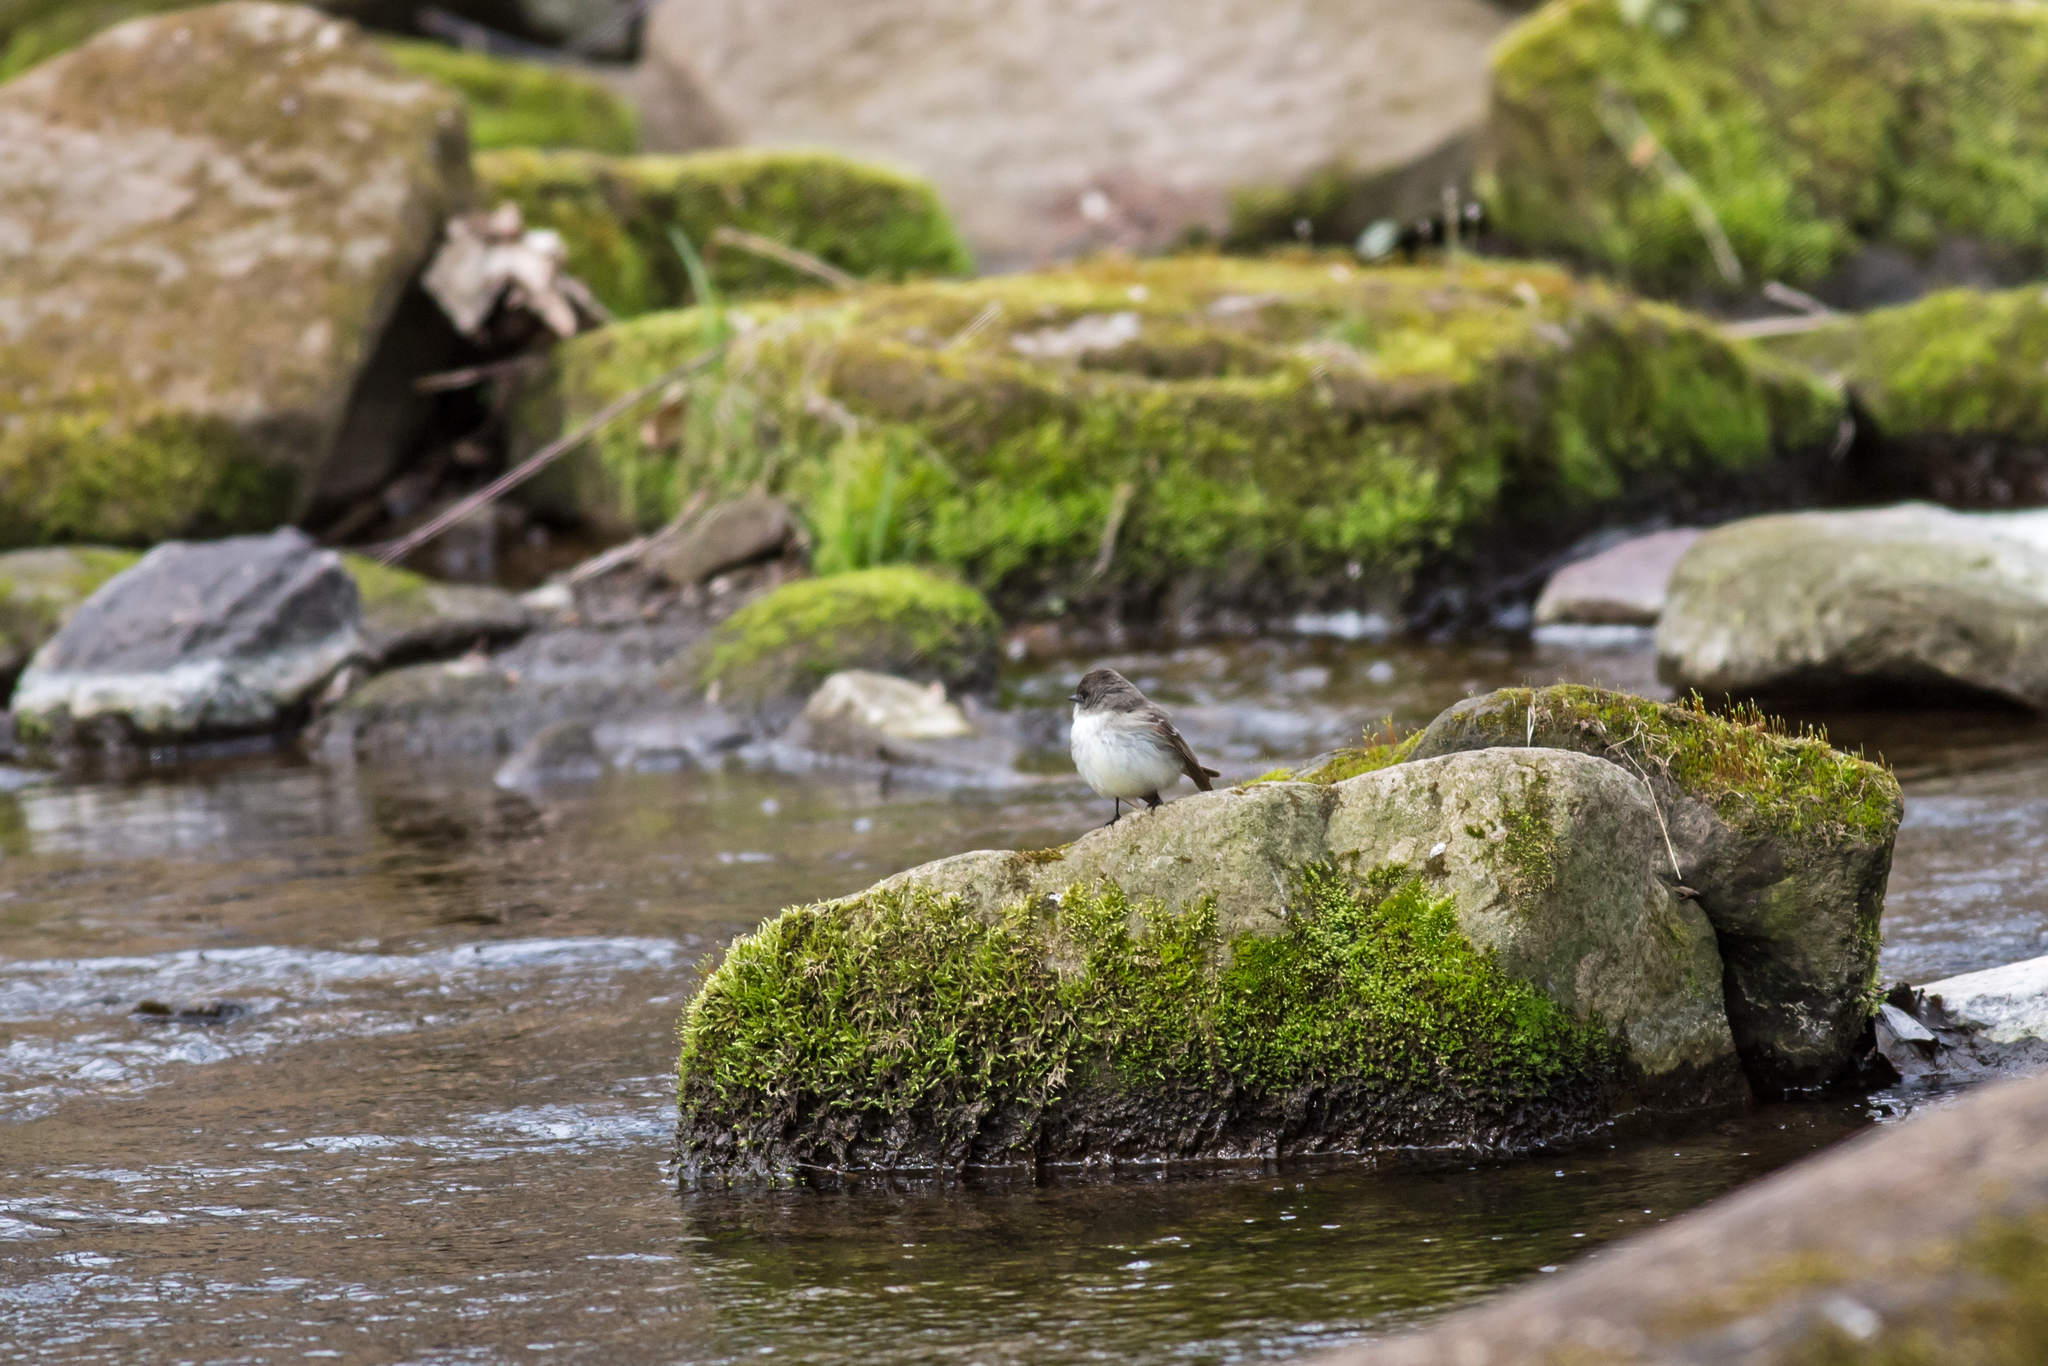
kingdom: Animalia
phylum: Chordata
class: Aves
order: Passeriformes
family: Tyrannidae
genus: Sayornis
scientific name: Sayornis phoebe
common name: Eastern phoebe
